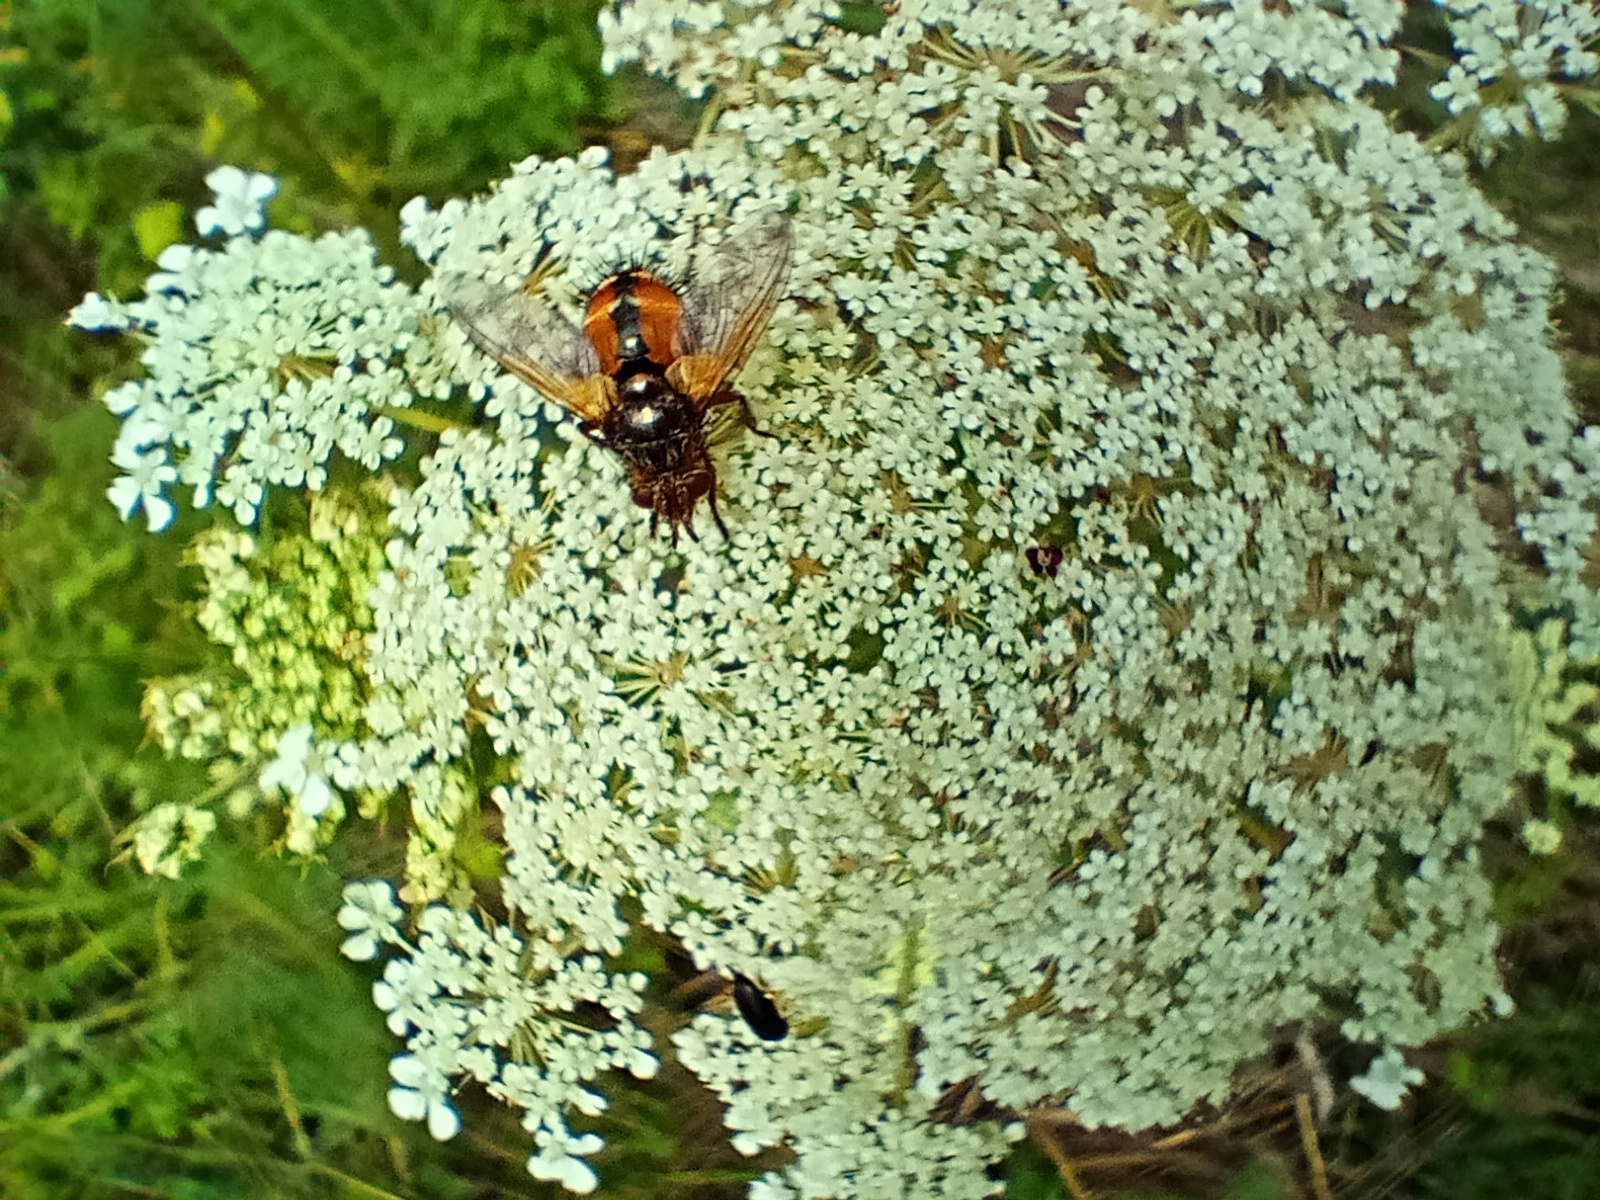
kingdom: Animalia
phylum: Arthropoda
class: Insecta
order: Diptera
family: Tachinidae
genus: Tachina
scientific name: Tachina fera
